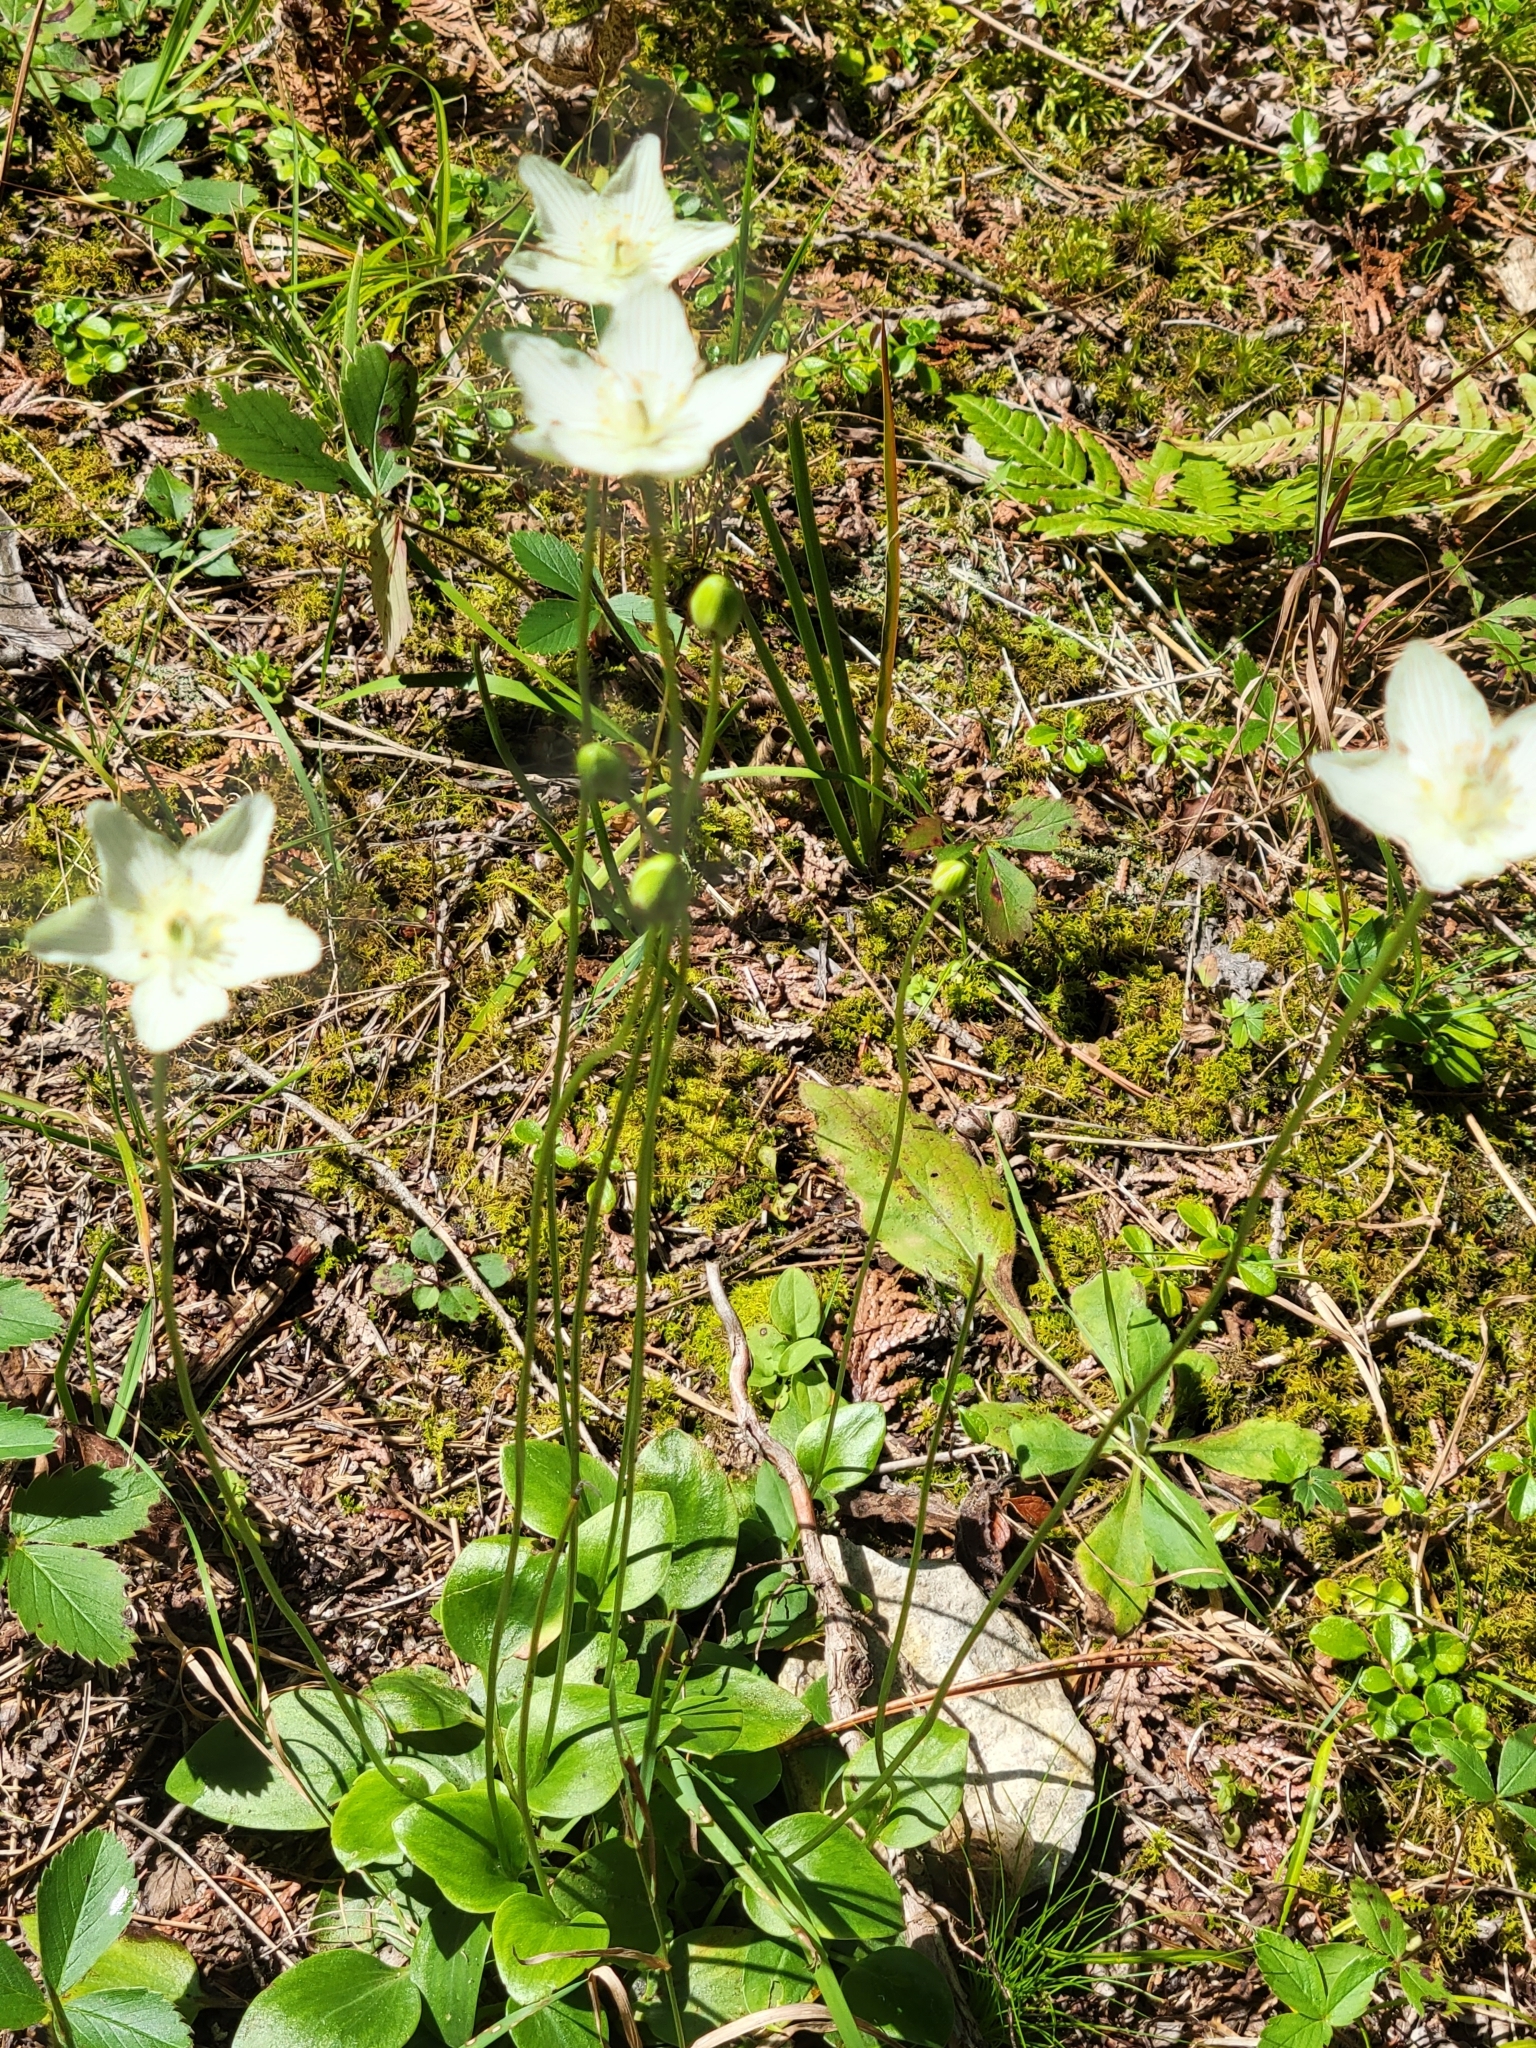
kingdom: Plantae
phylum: Tracheophyta
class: Magnoliopsida
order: Celastrales
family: Parnassiaceae
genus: Parnassia
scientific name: Parnassia glauca
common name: American grass-of-parnassus
